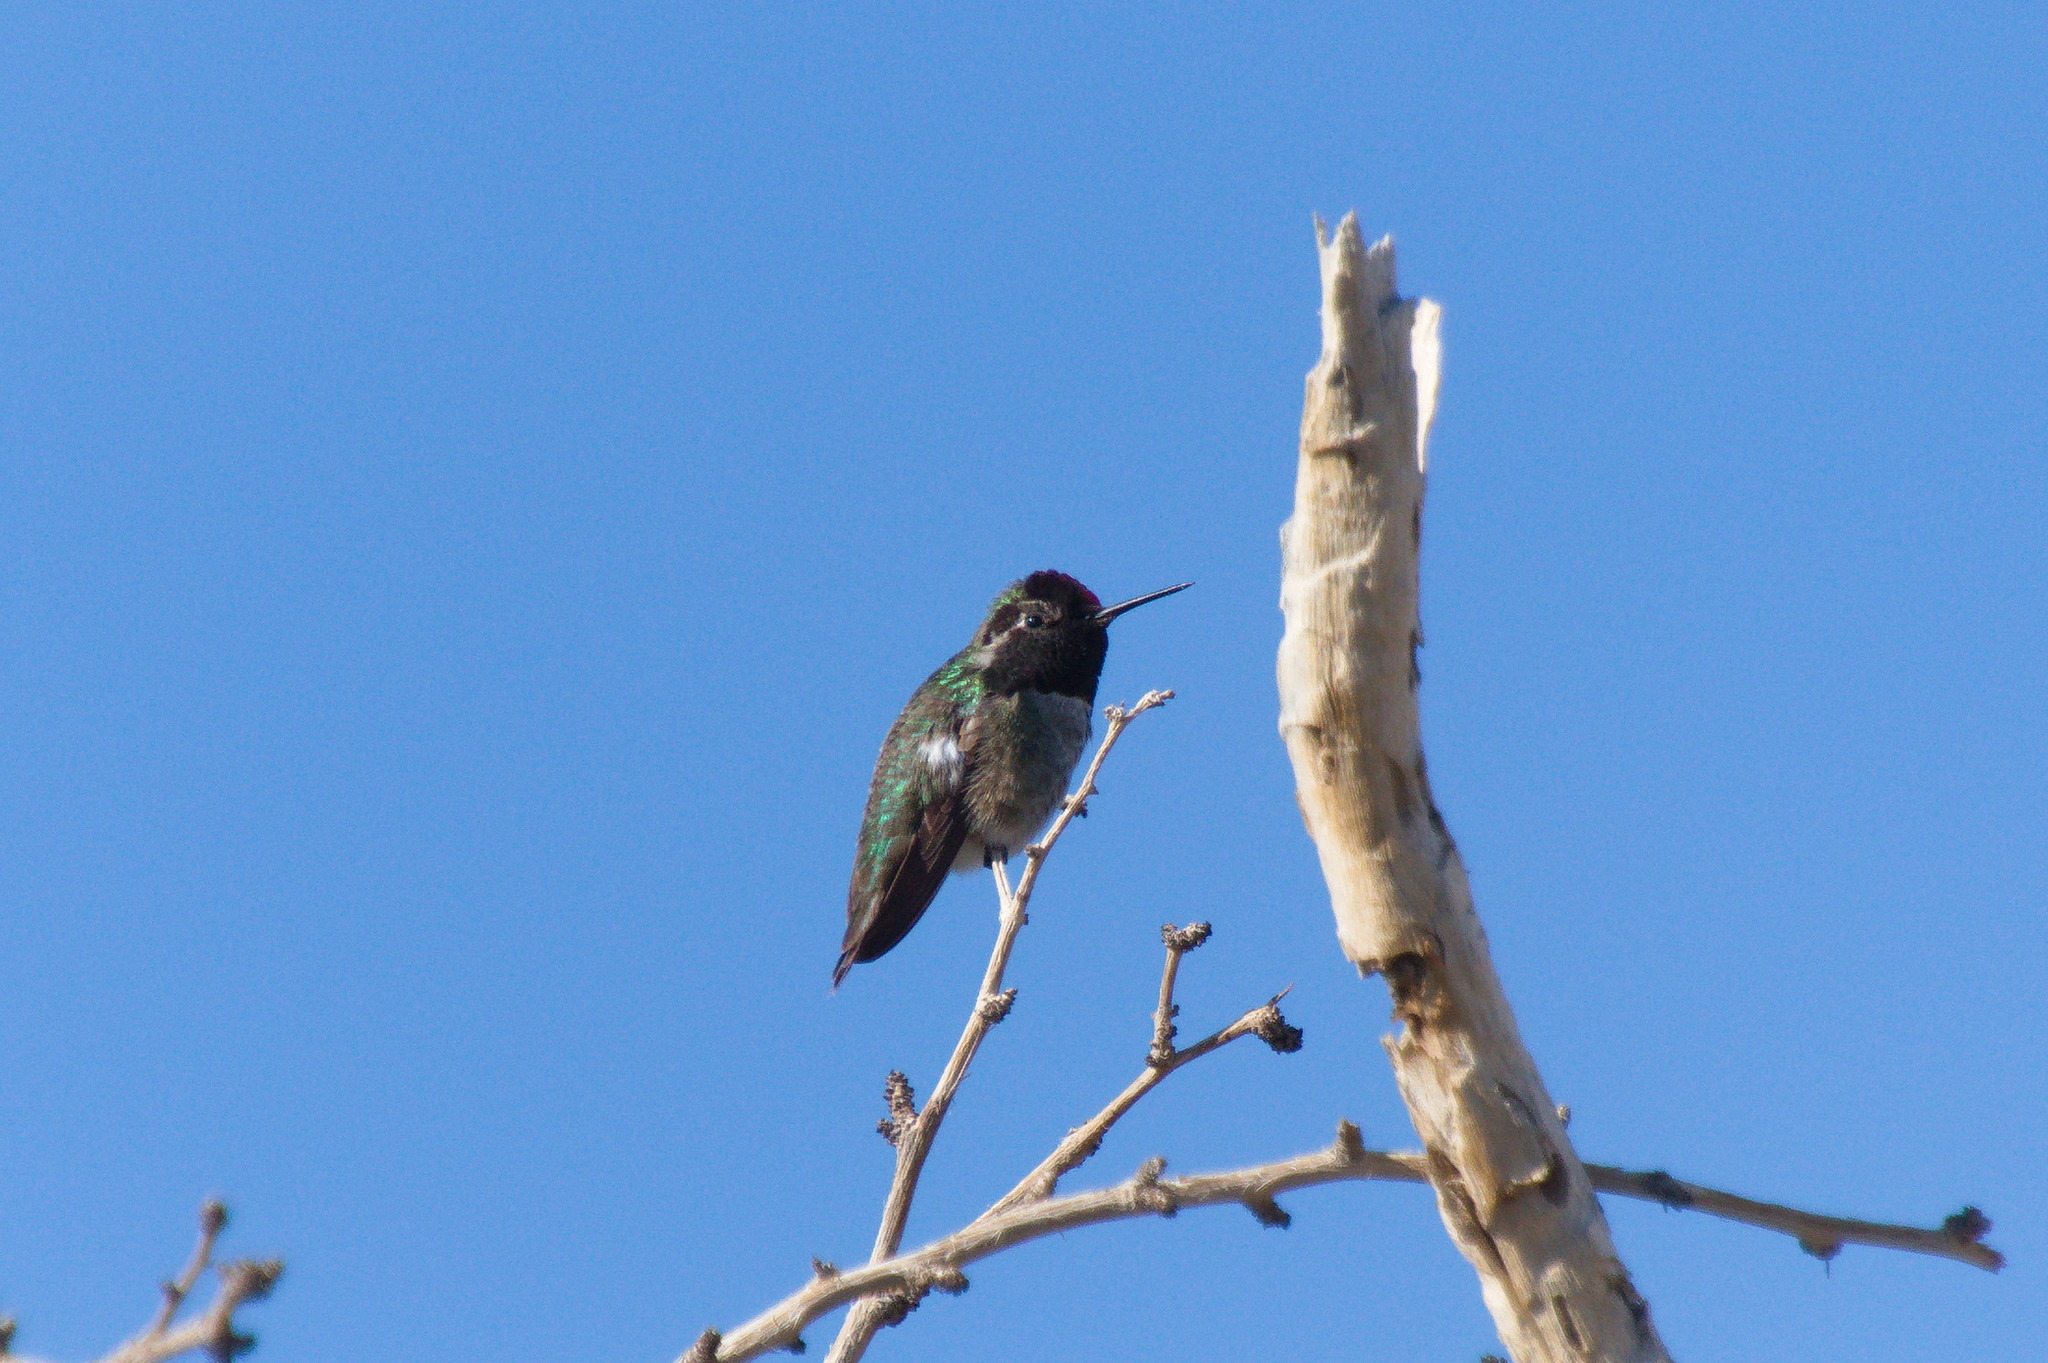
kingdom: Animalia
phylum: Chordata
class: Aves
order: Apodiformes
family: Trochilidae
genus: Calypte
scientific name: Calypte anna
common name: Anna's hummingbird
